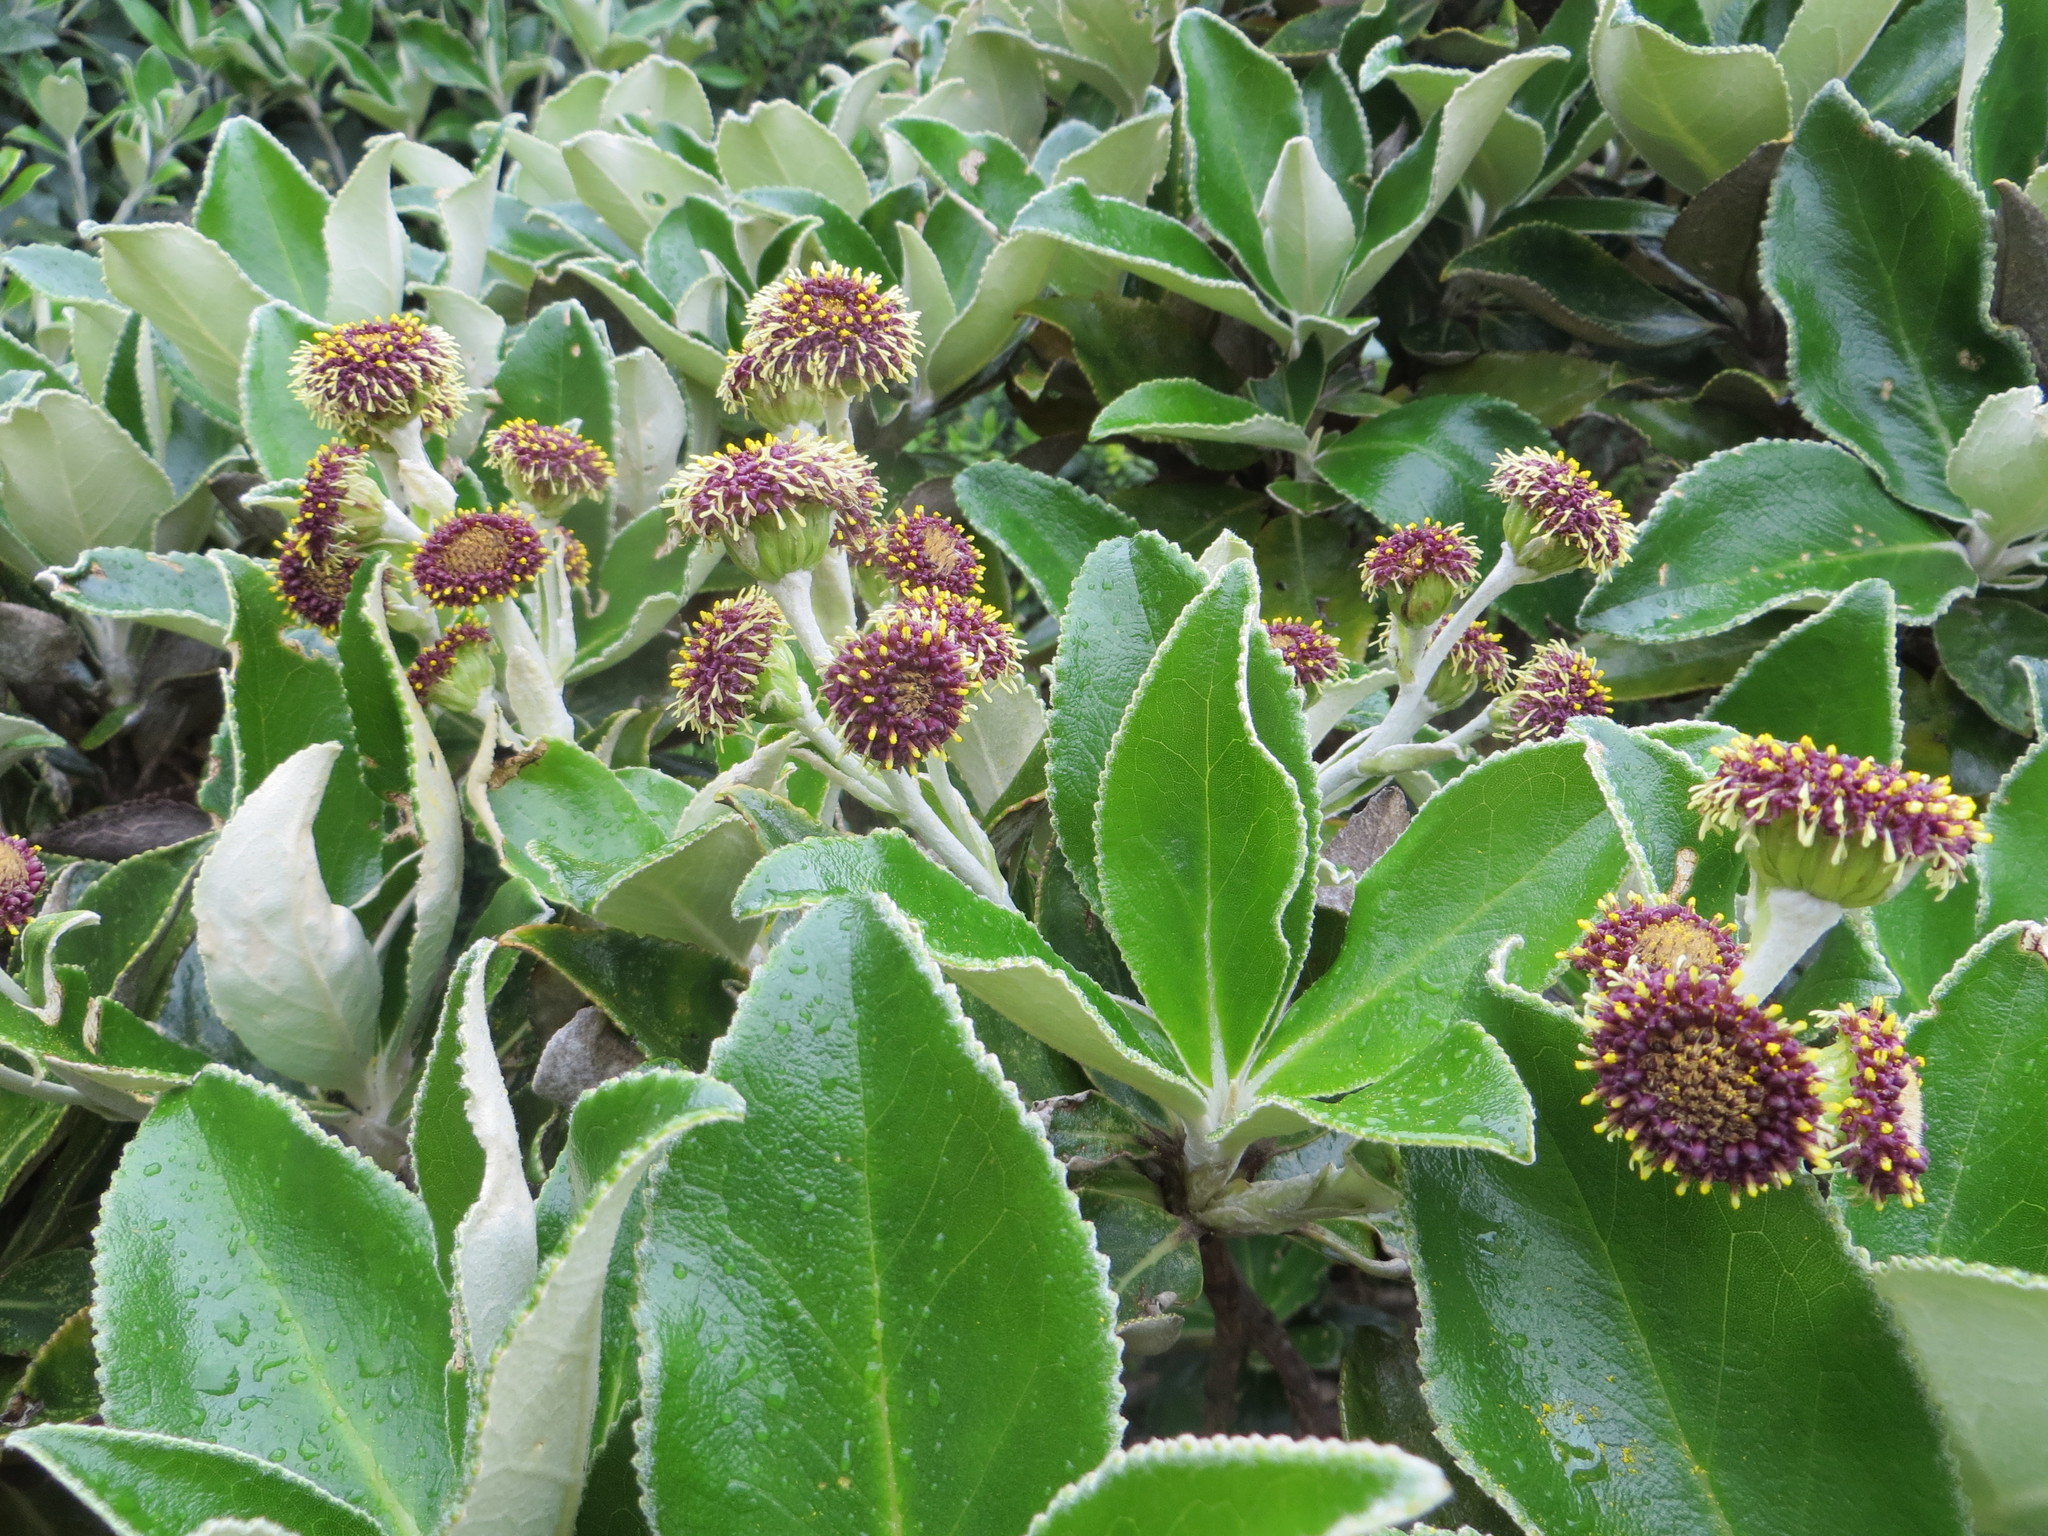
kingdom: Plantae
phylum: Tracheophyta
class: Magnoliopsida
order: Asterales
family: Asteraceae
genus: Macrolearia
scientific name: Macrolearia colensoi
